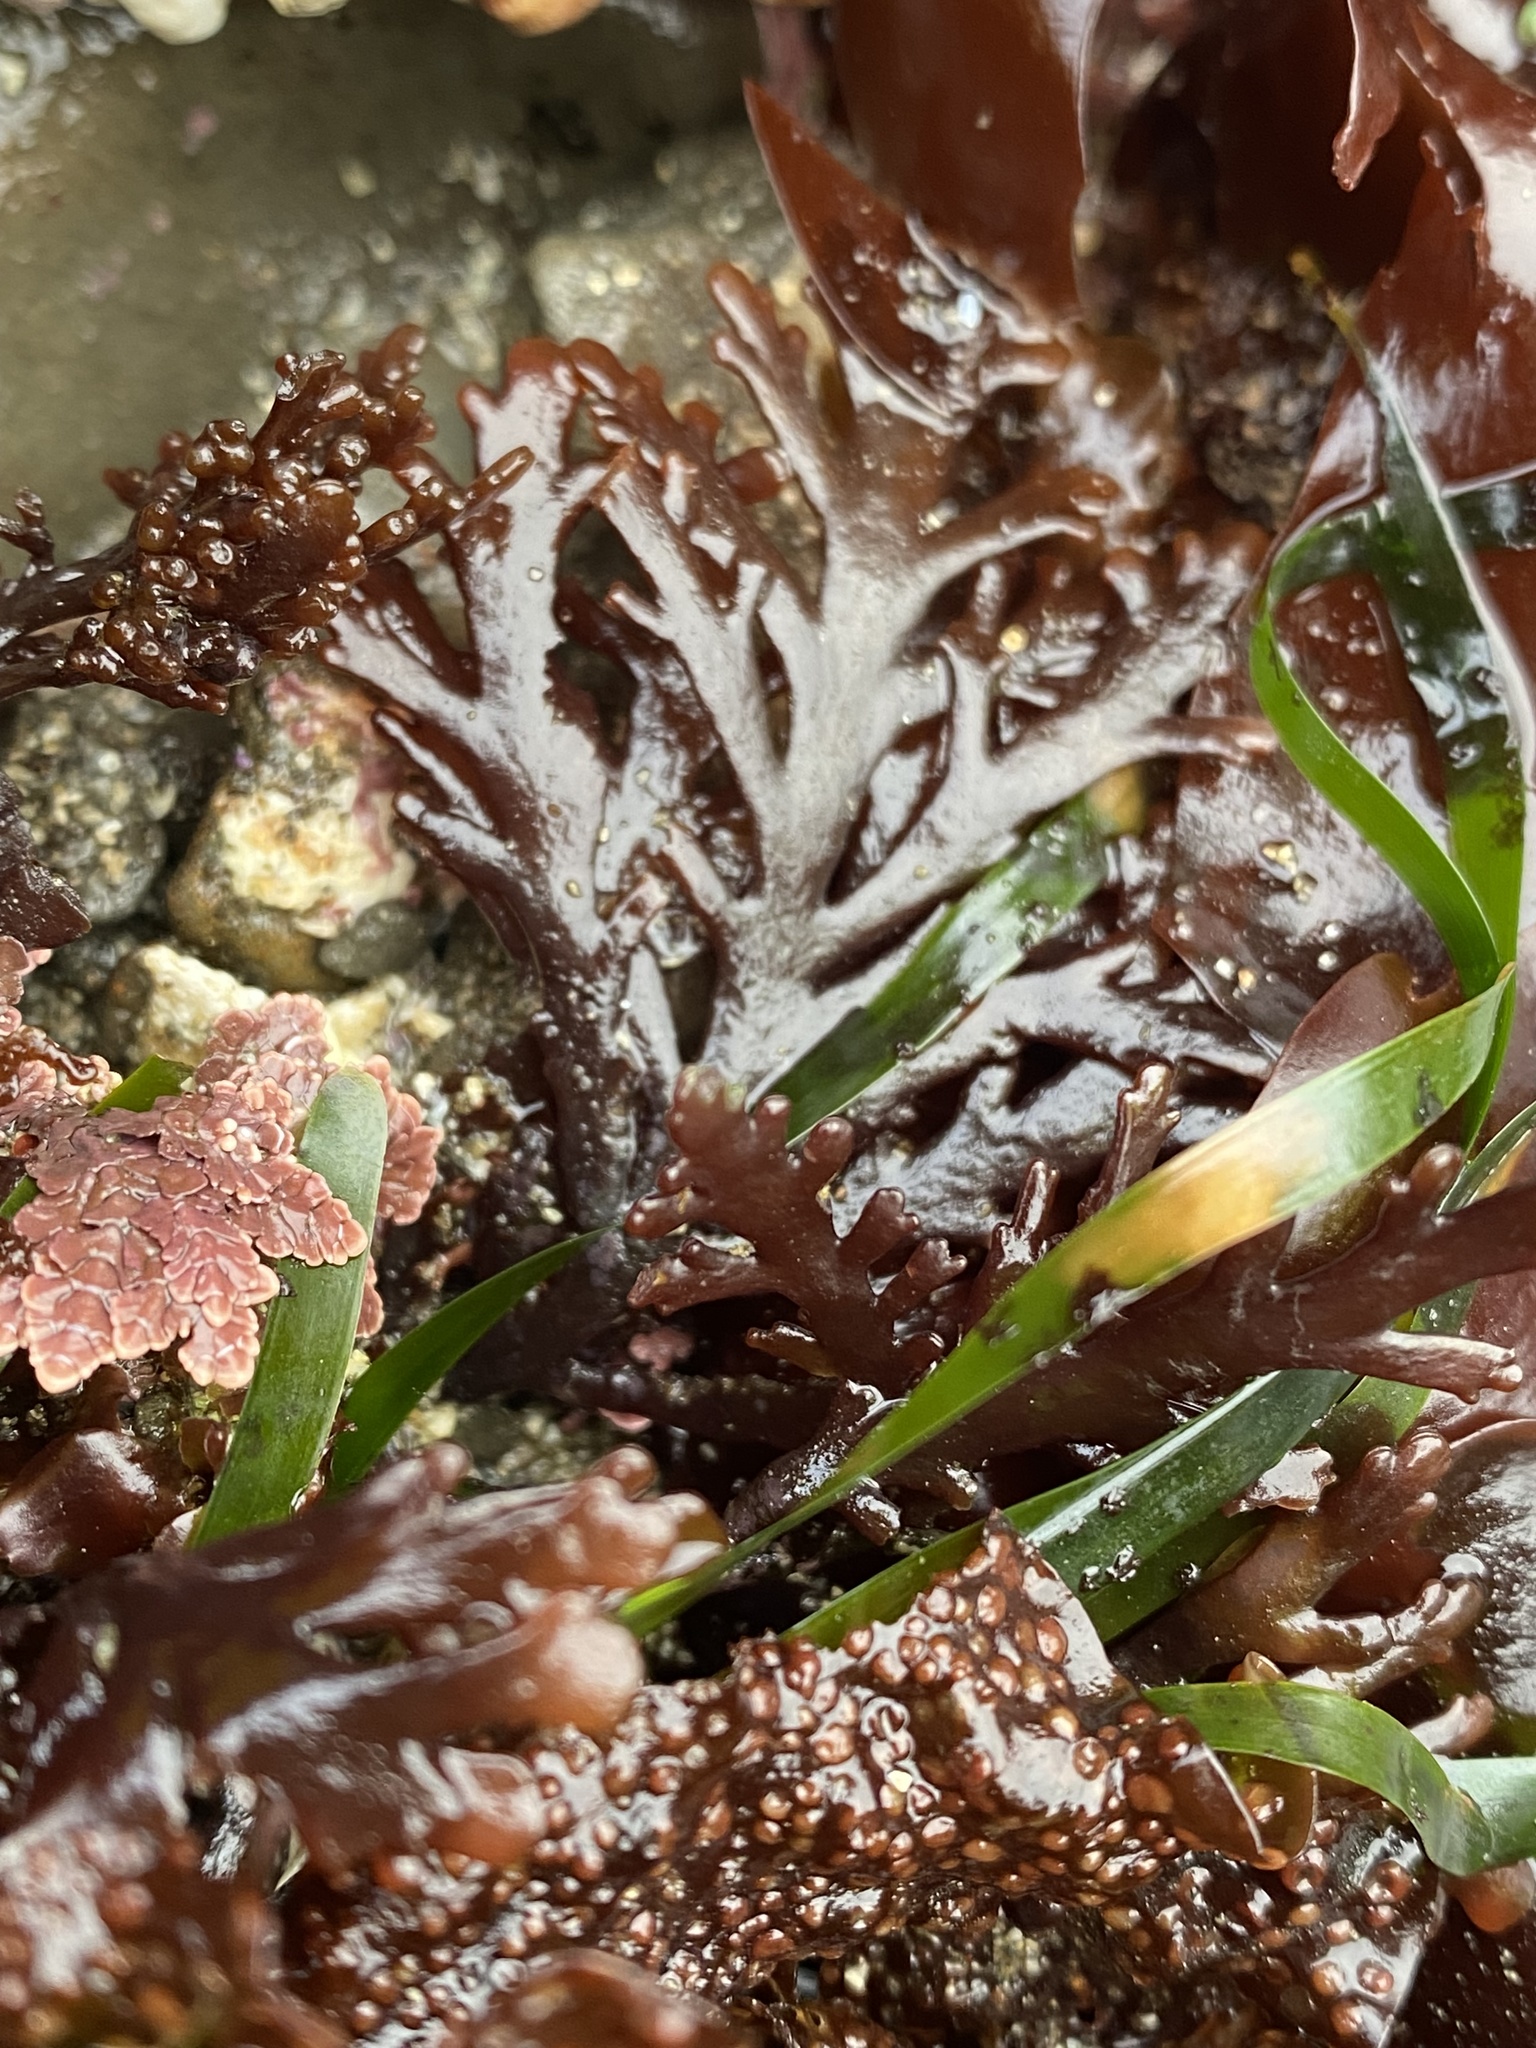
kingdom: Plantae
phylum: Rhodophyta
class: Florideophyceae
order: Ceramiales
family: Rhodomelaceae
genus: Osmundea
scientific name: Osmundea spectabilis
